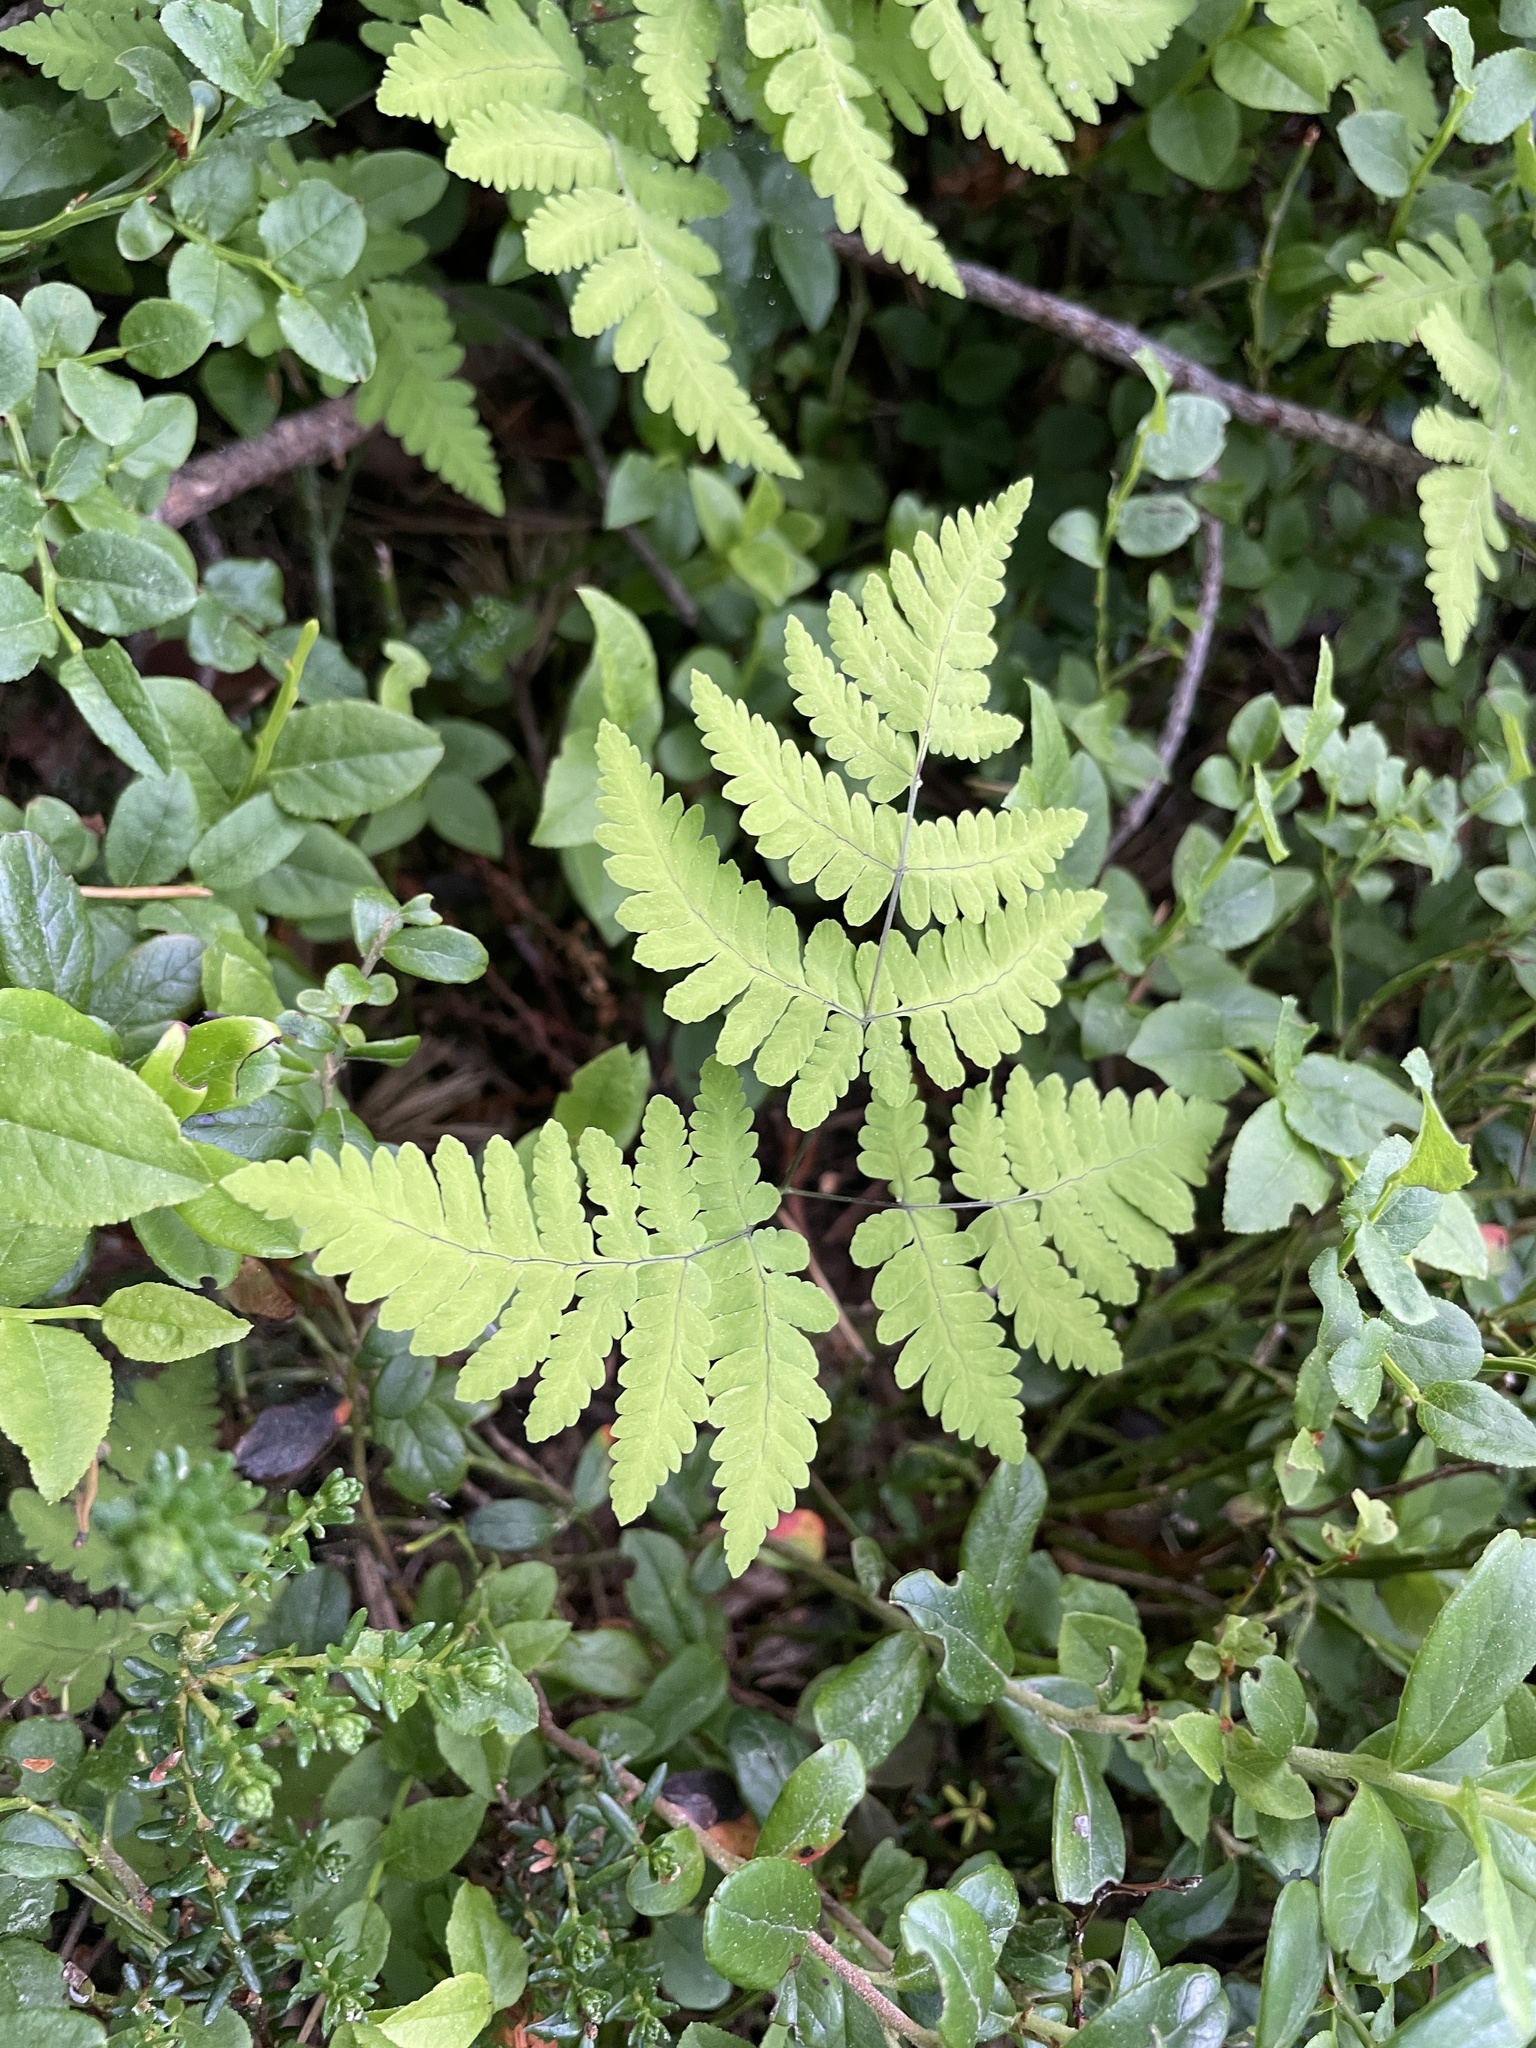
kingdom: Plantae
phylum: Tracheophyta
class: Polypodiopsida
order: Polypodiales
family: Cystopteridaceae
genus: Gymnocarpium
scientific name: Gymnocarpium dryopteris
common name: Oak fern
